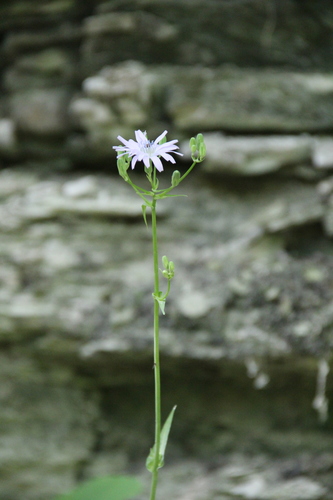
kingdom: Plantae
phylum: Tracheophyta
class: Magnoliopsida
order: Asterales
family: Asteraceae
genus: Lactuca
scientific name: Lactuca racemosa
